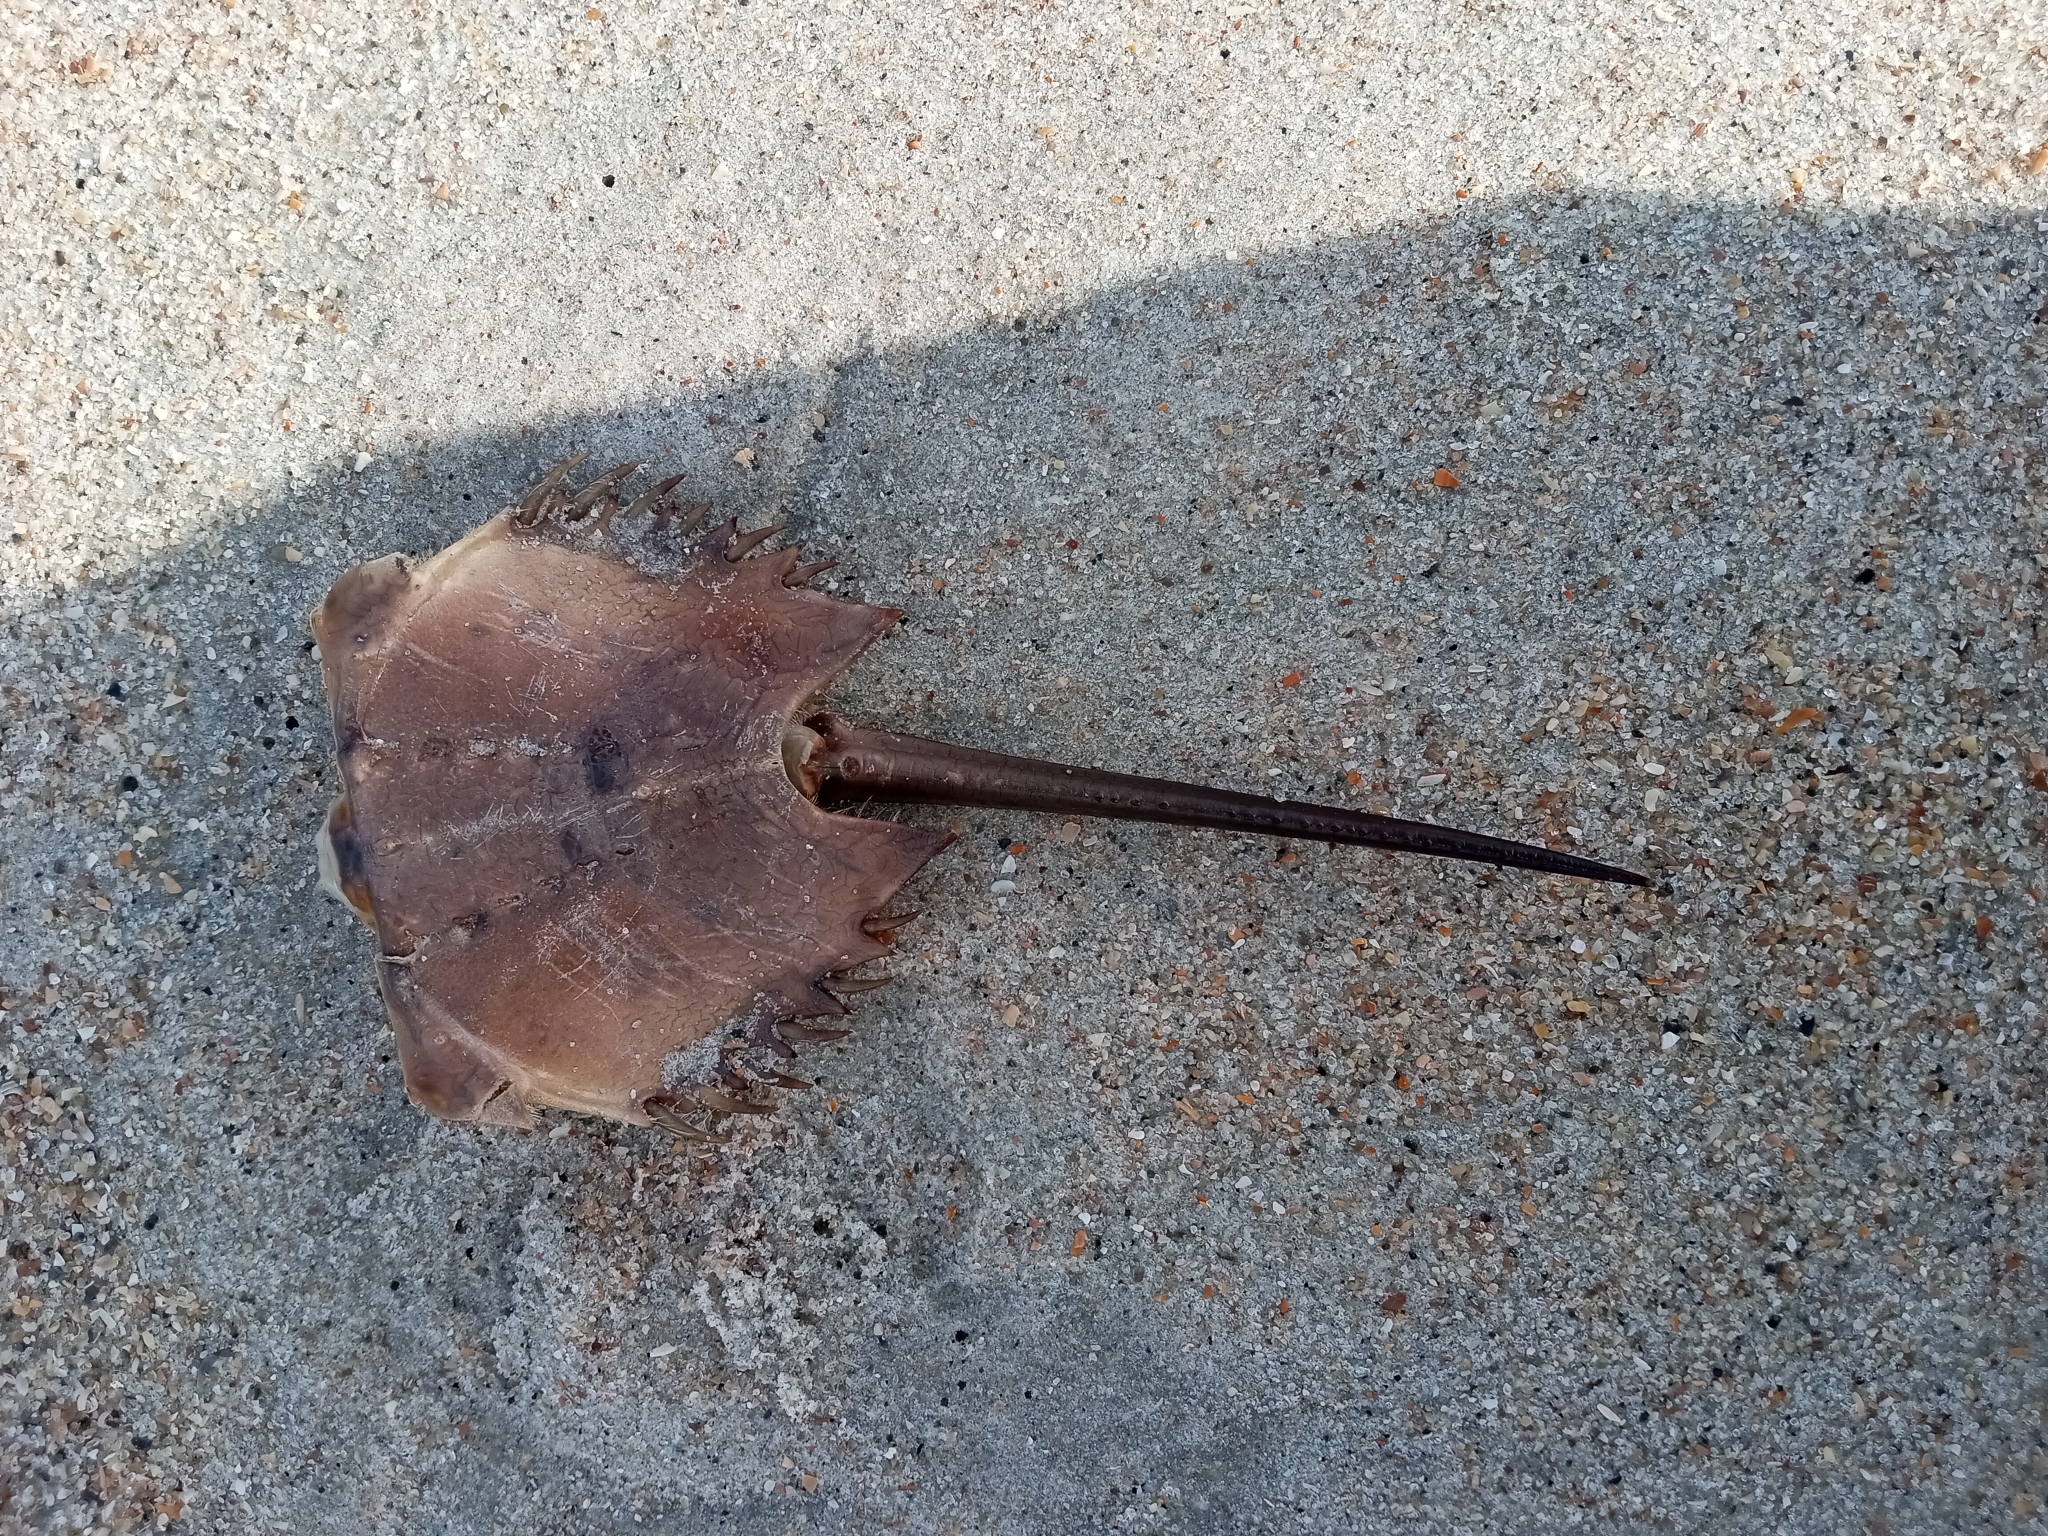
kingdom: Animalia
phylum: Arthropoda
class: Merostomata
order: Xiphosurida
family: Limulidae
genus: Limulus
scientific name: Limulus polyphemus
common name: Horseshoe crab
